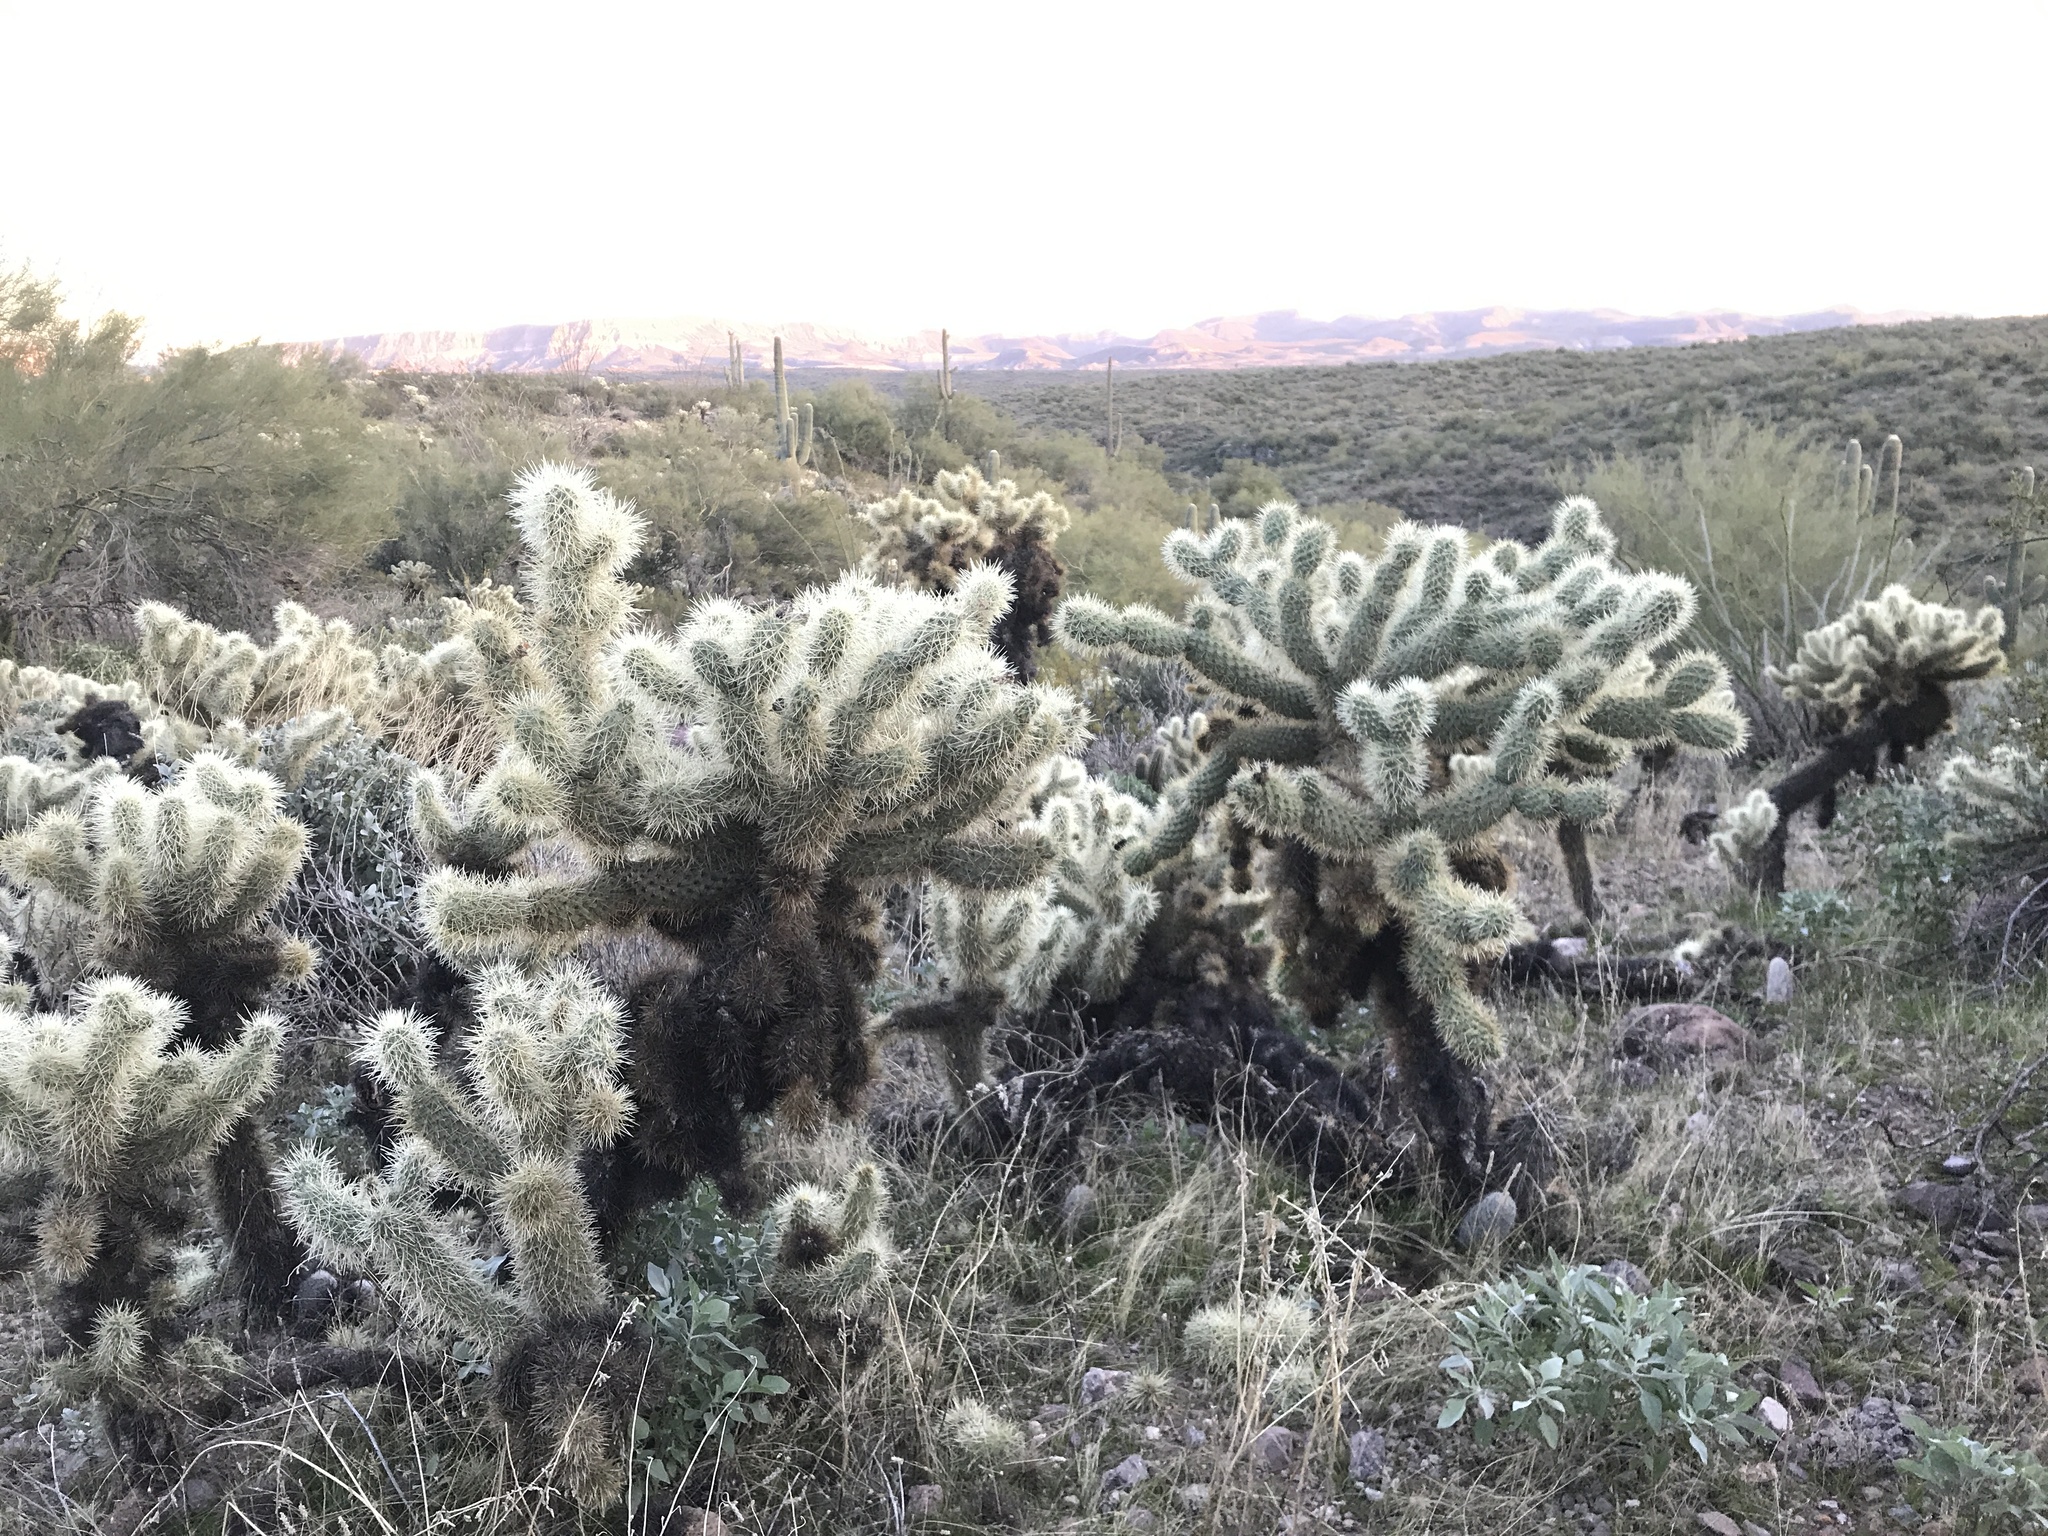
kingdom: Plantae
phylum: Tracheophyta
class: Magnoliopsida
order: Caryophyllales
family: Cactaceae
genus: Cylindropuntia
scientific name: Cylindropuntia fosbergii
